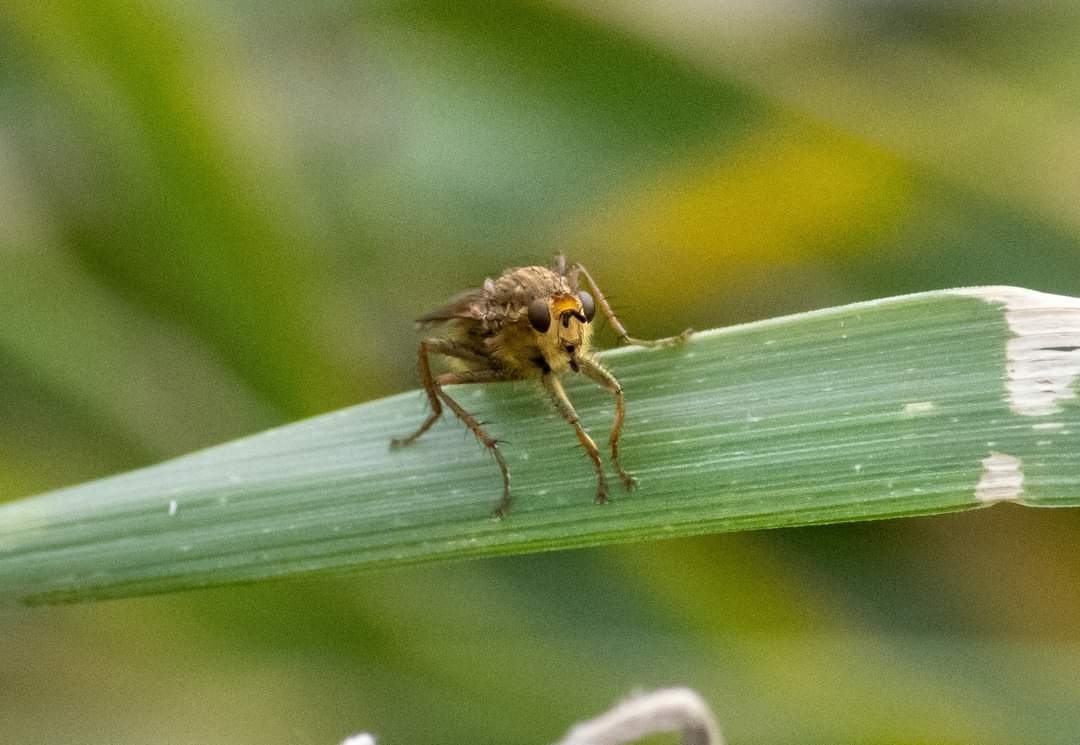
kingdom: Animalia
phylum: Arthropoda
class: Insecta
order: Diptera
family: Scathophagidae
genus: Scathophaga
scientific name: Scathophaga stercoraria
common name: Yellow dung fly
